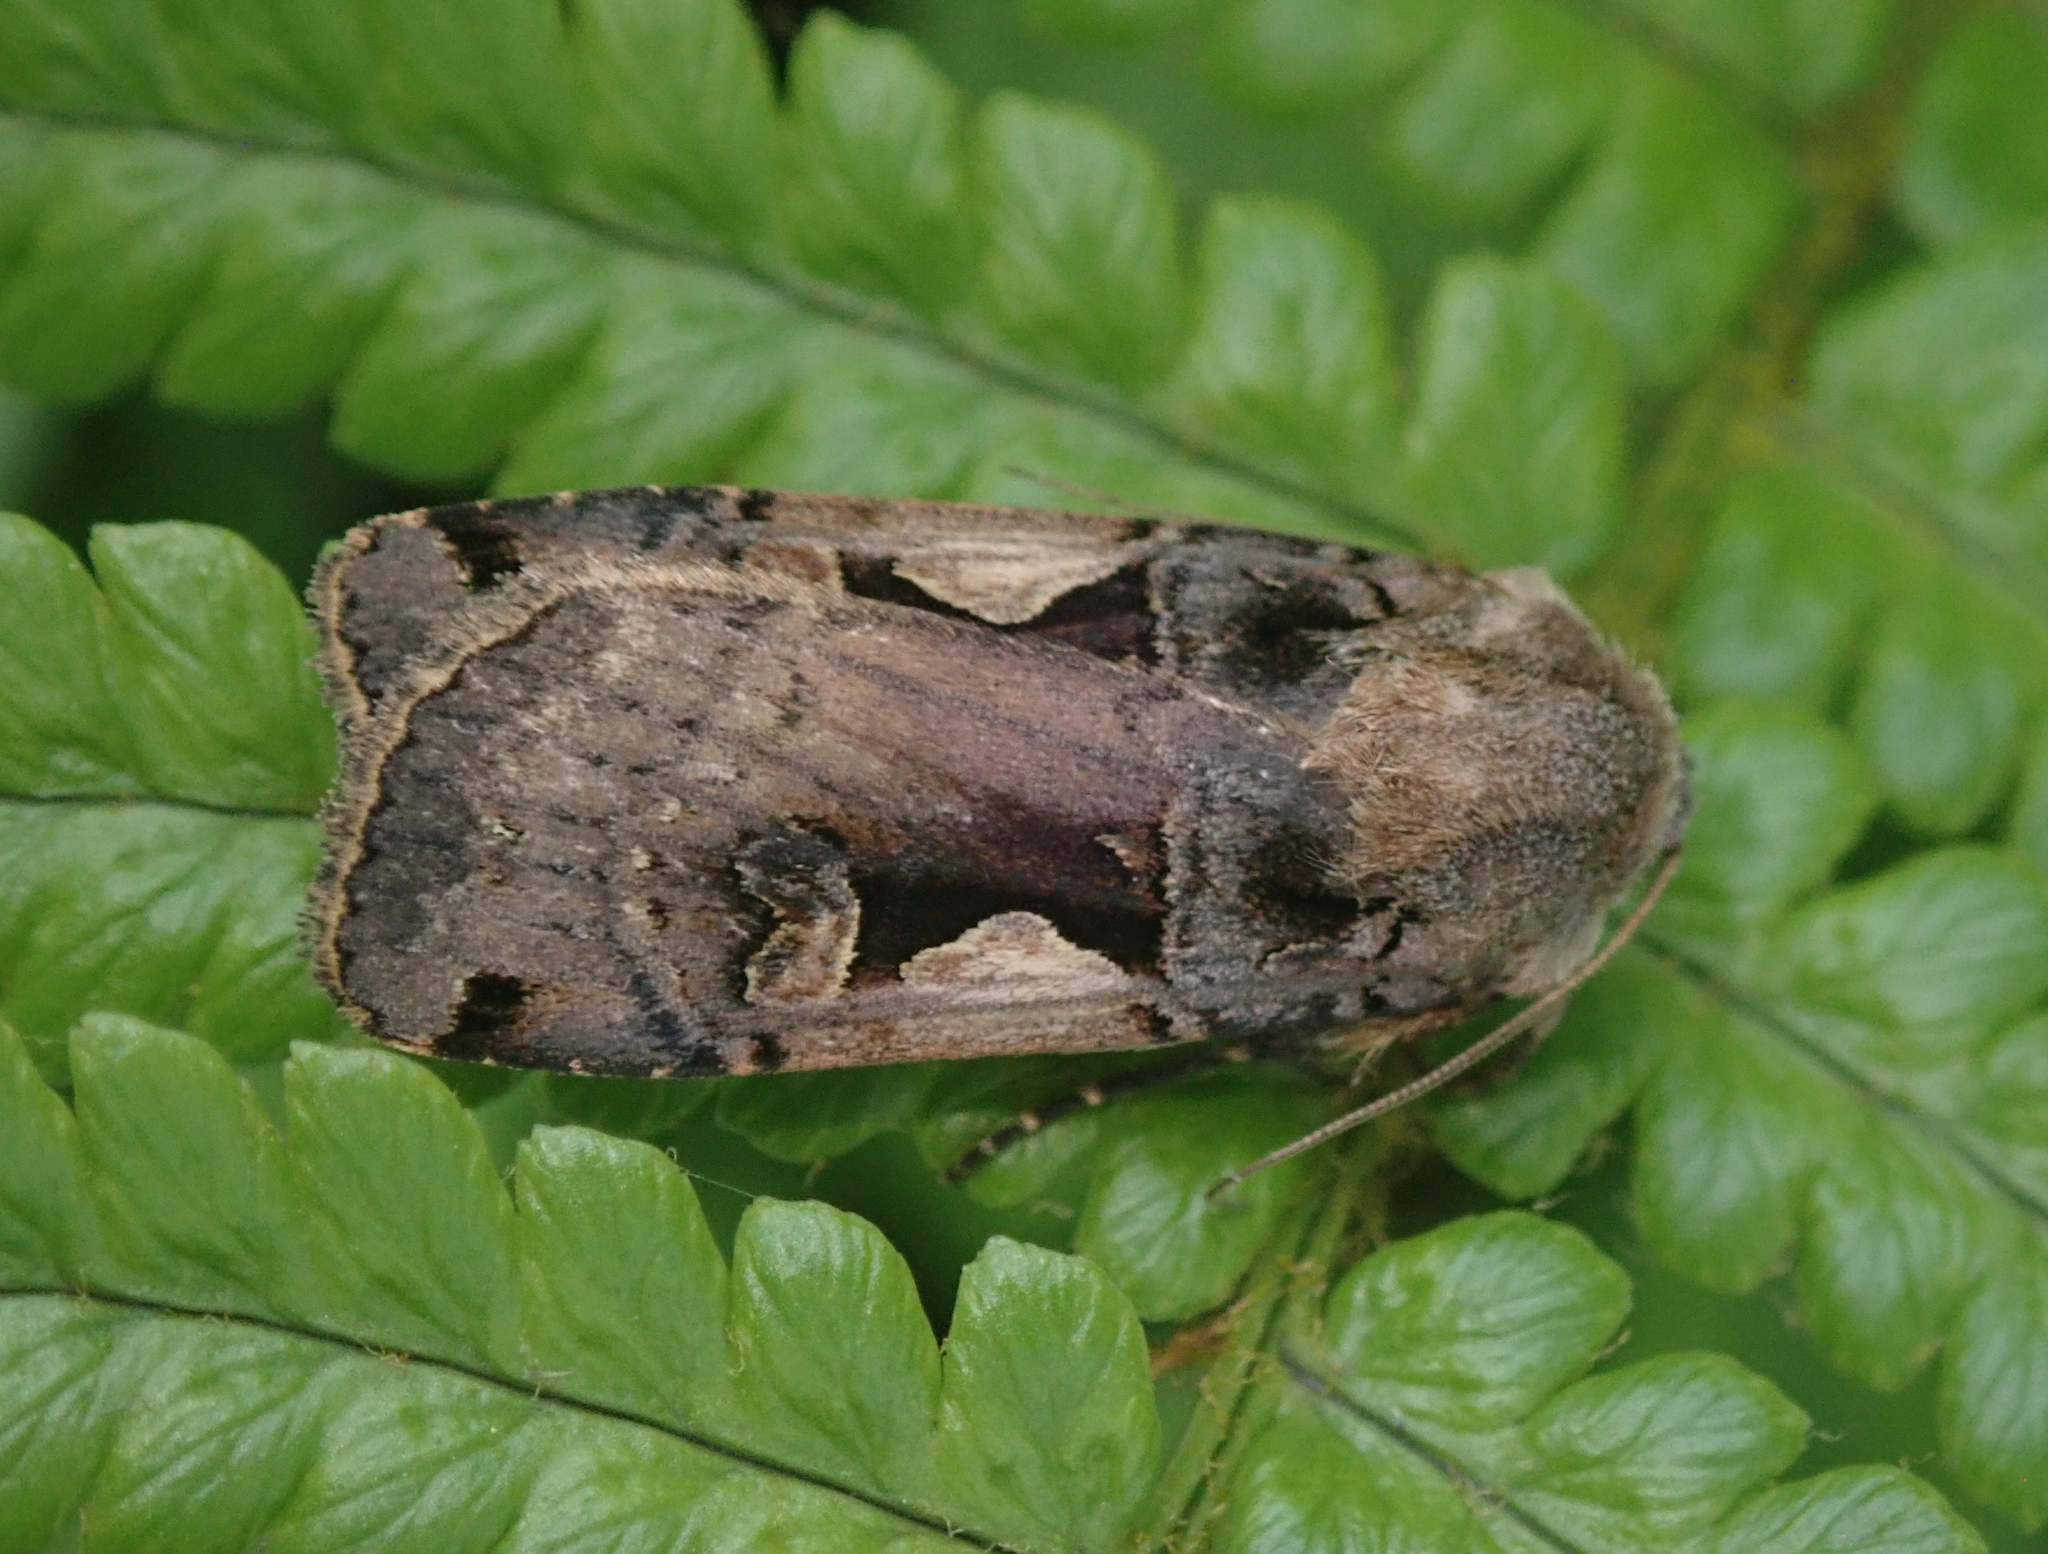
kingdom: Animalia
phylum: Arthropoda
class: Insecta
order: Lepidoptera
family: Noctuidae
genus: Xestia
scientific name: Xestia c-nigrum
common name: Setaceous hebrew character
